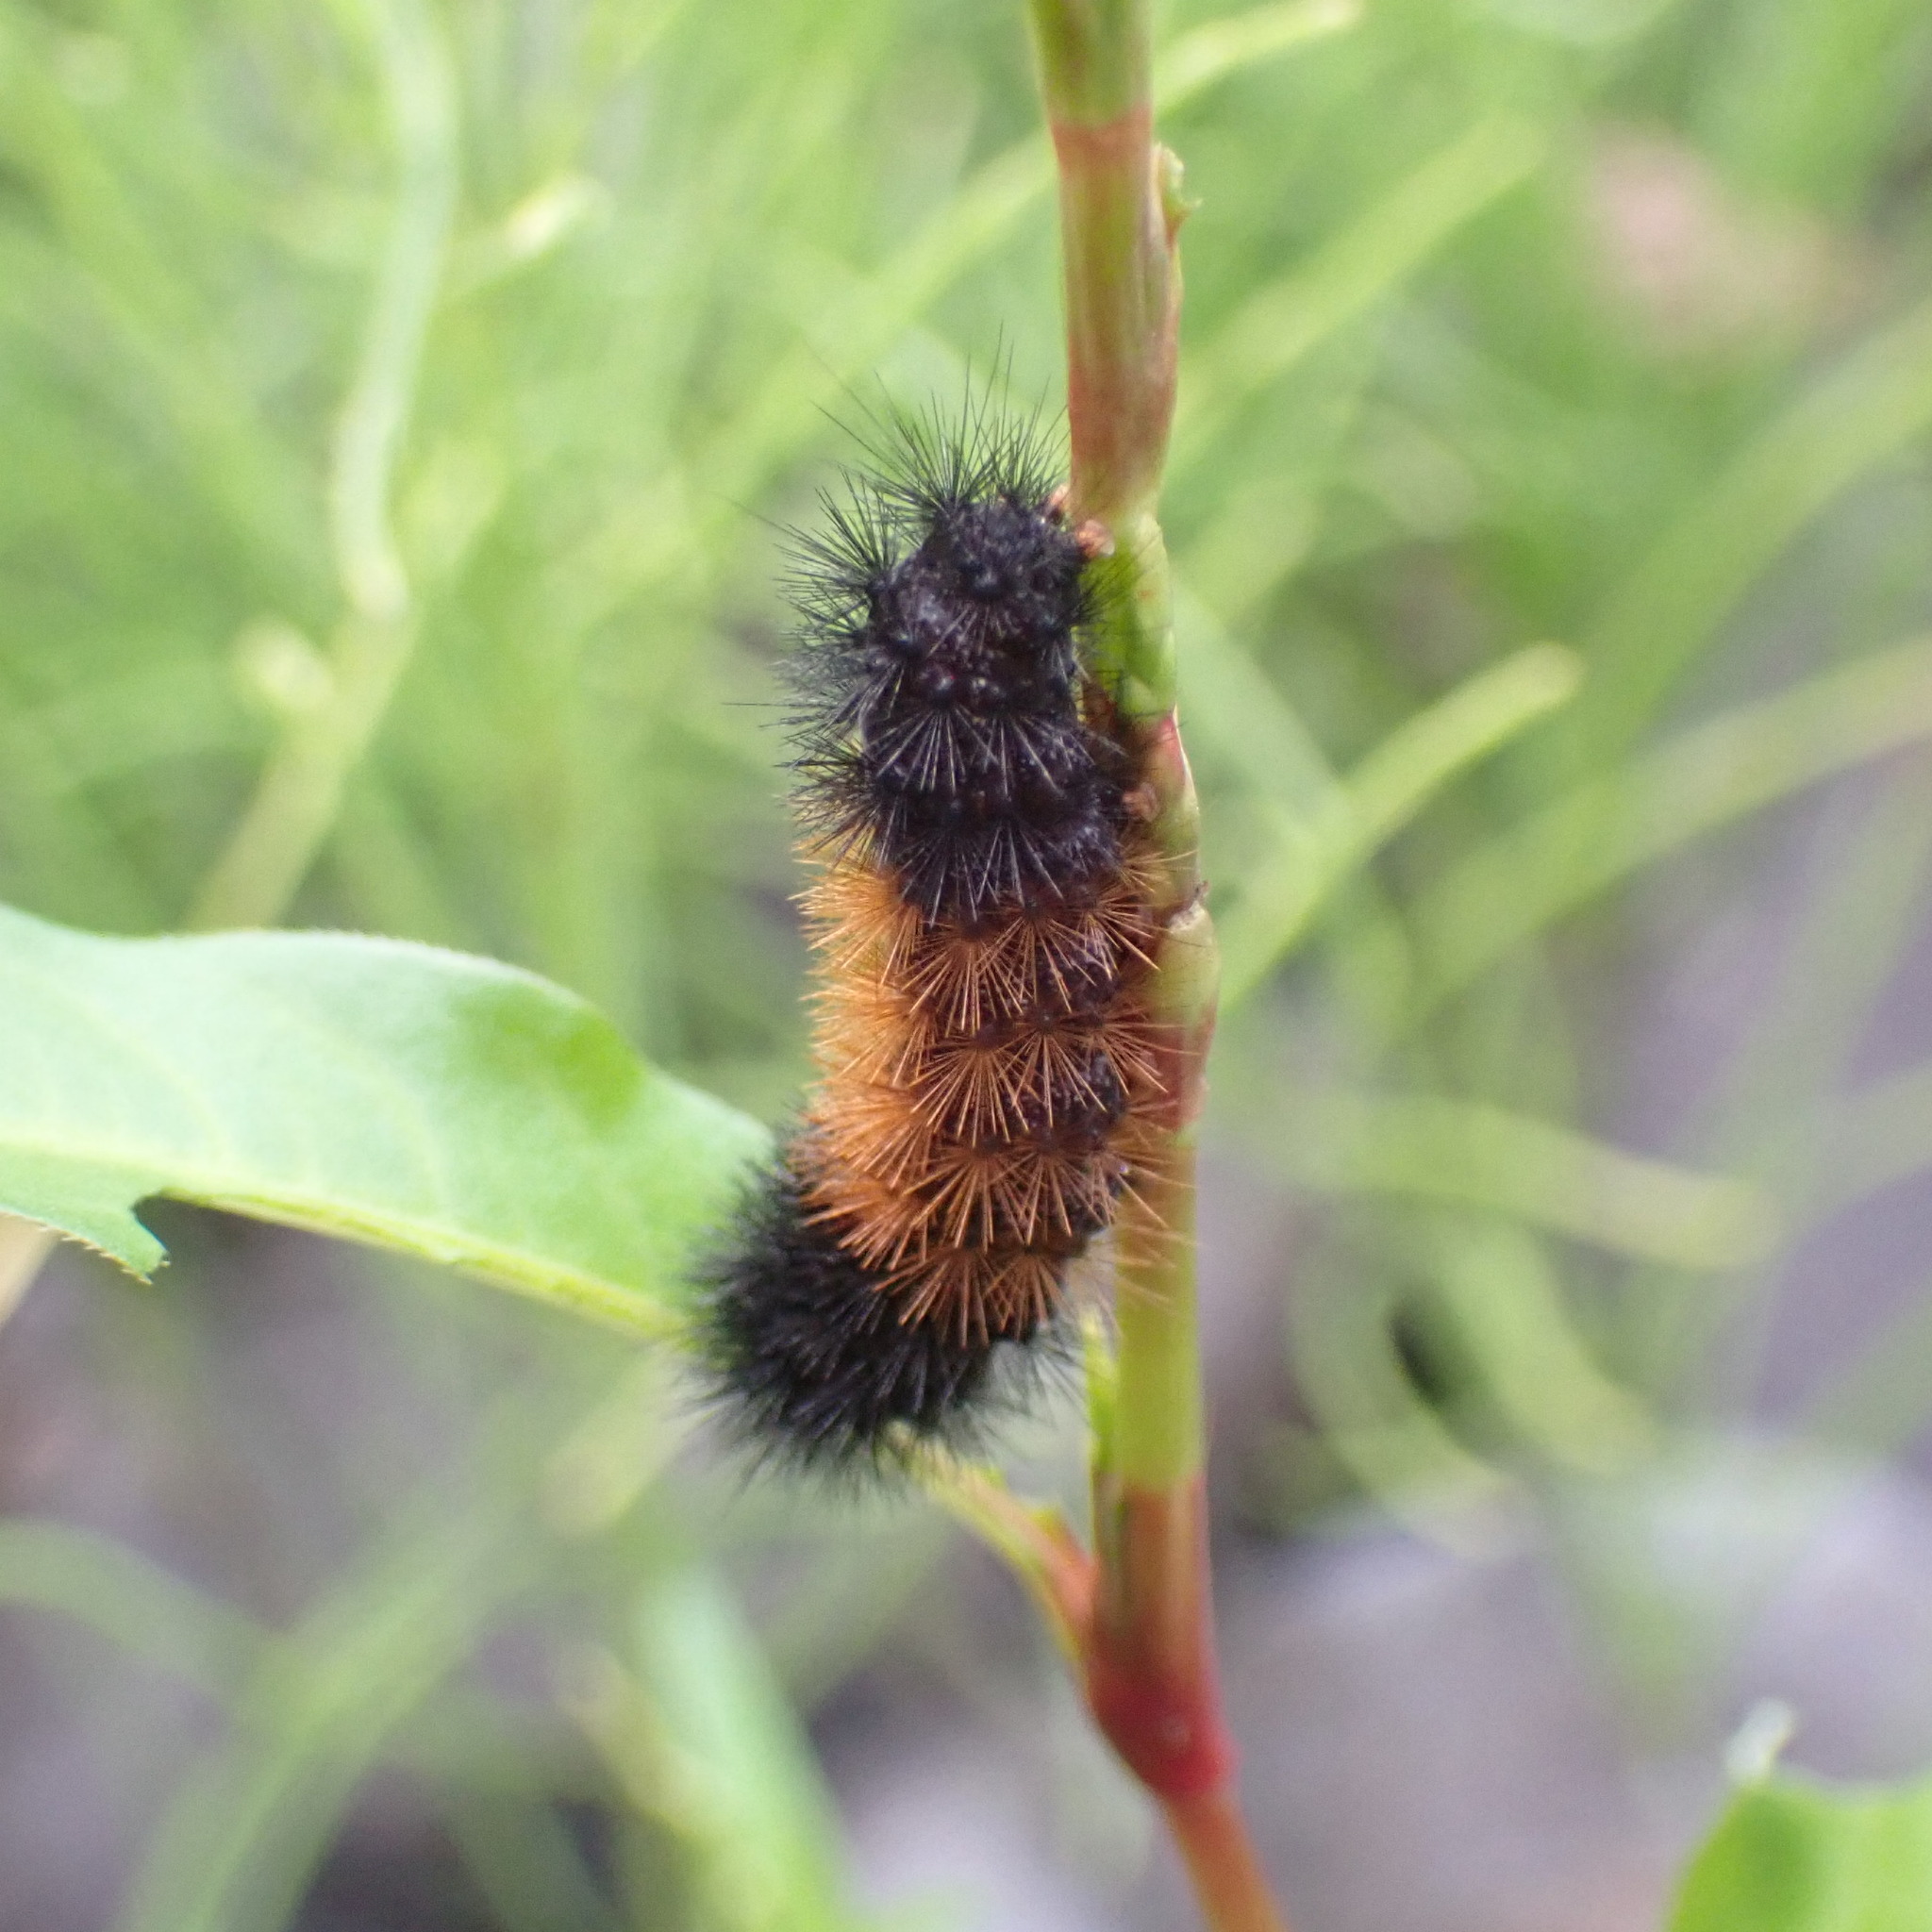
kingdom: Animalia
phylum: Arthropoda
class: Insecta
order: Lepidoptera
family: Erebidae
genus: Pyrrharctia
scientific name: Pyrrharctia isabella
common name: Isabella tiger moth
